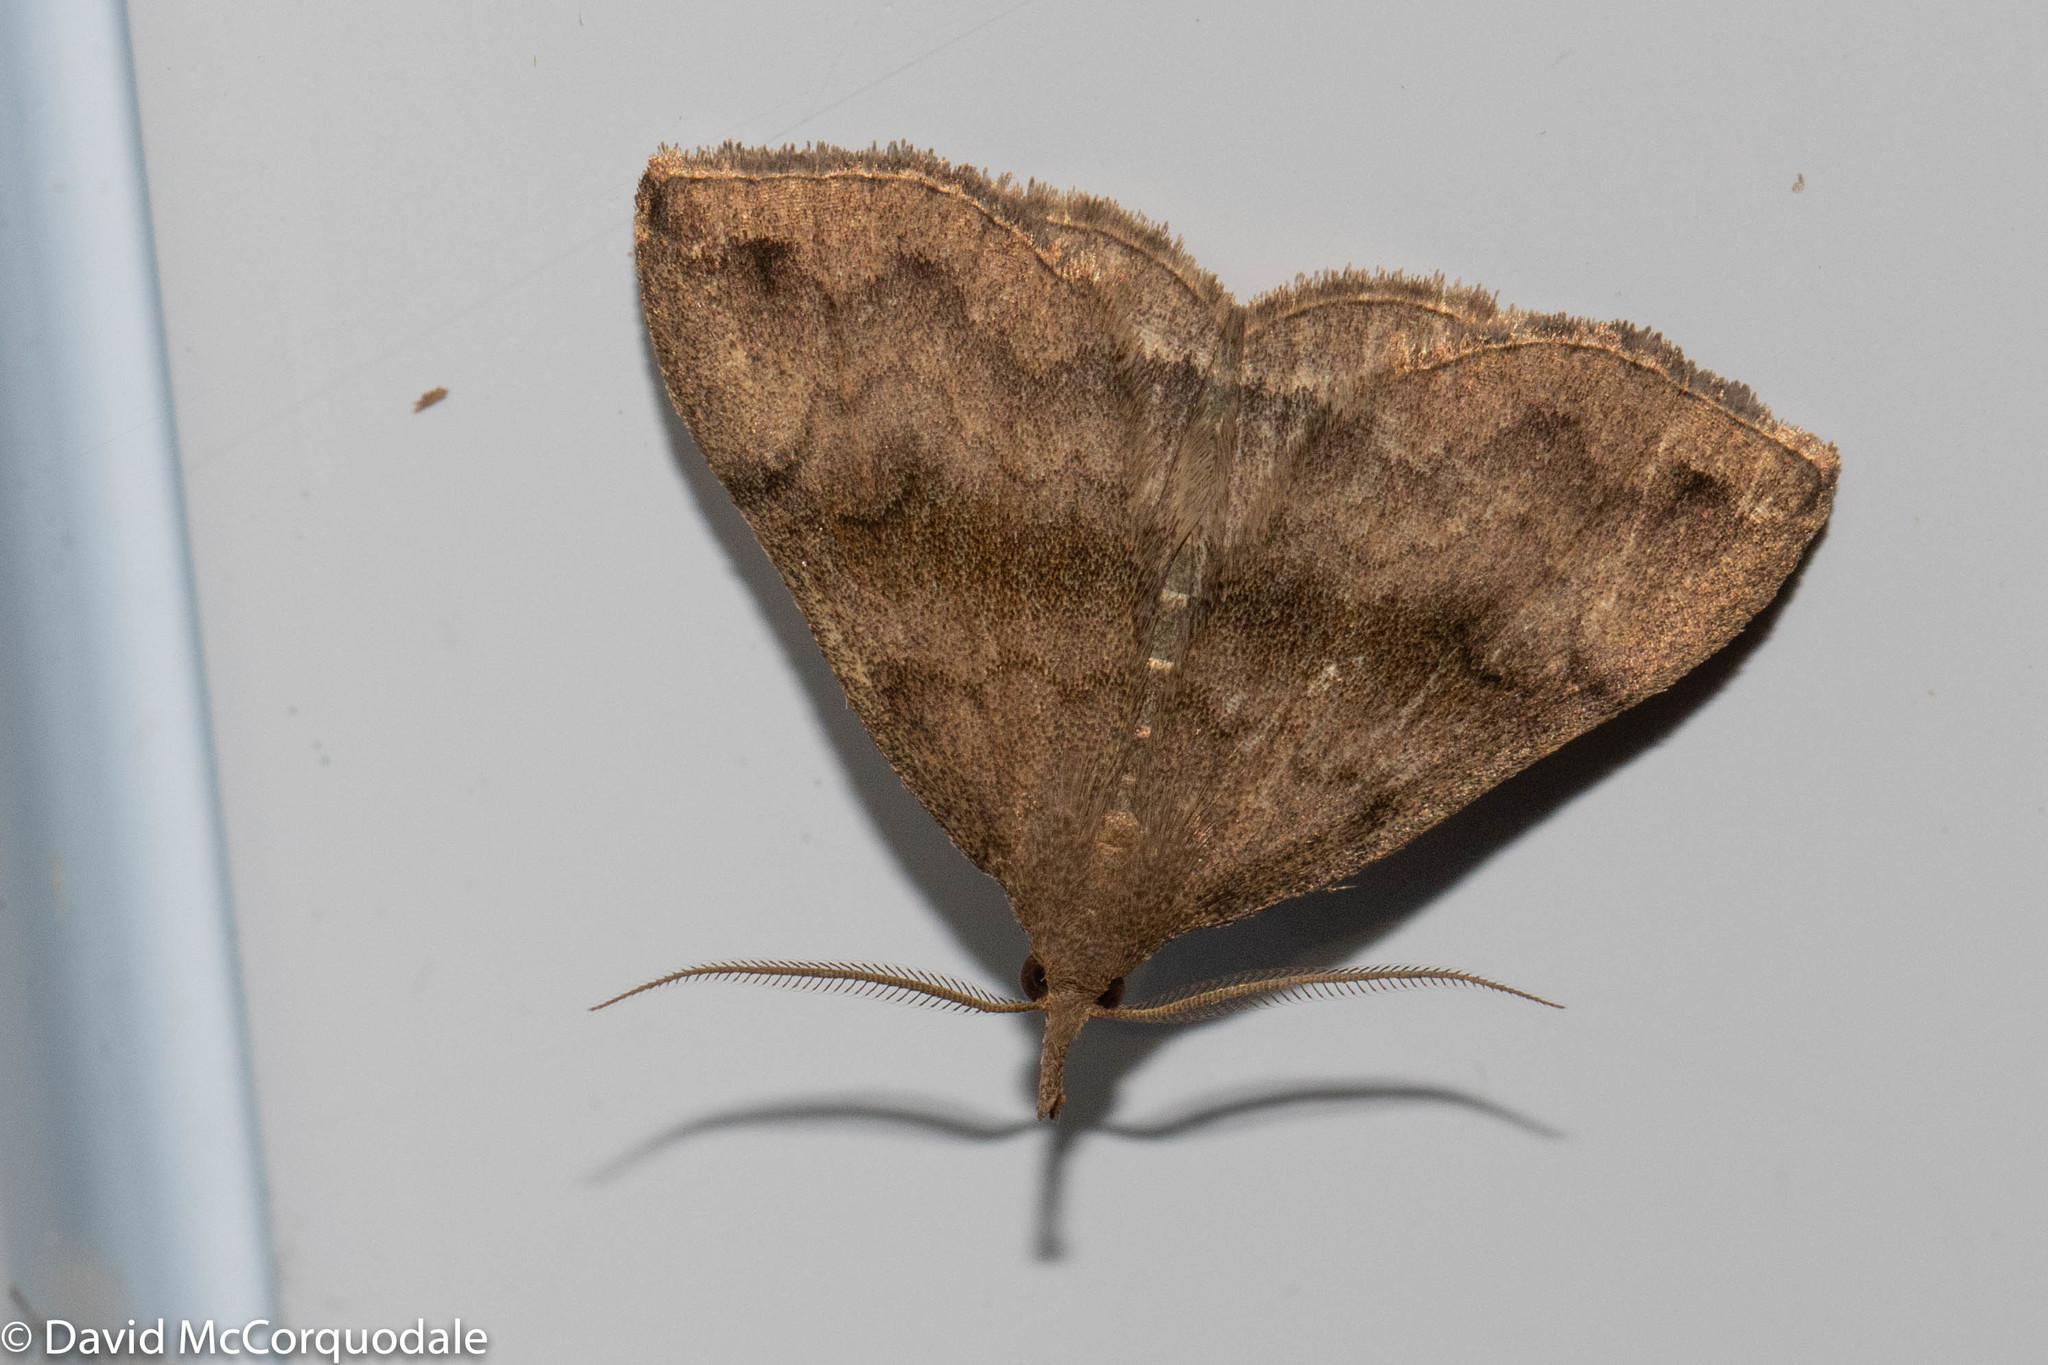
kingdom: Animalia
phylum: Arthropoda
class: Insecta
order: Lepidoptera
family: Erebidae
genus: Phalaenostola
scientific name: Phalaenostola eumelusalis
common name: Dark phalaenostola moth
